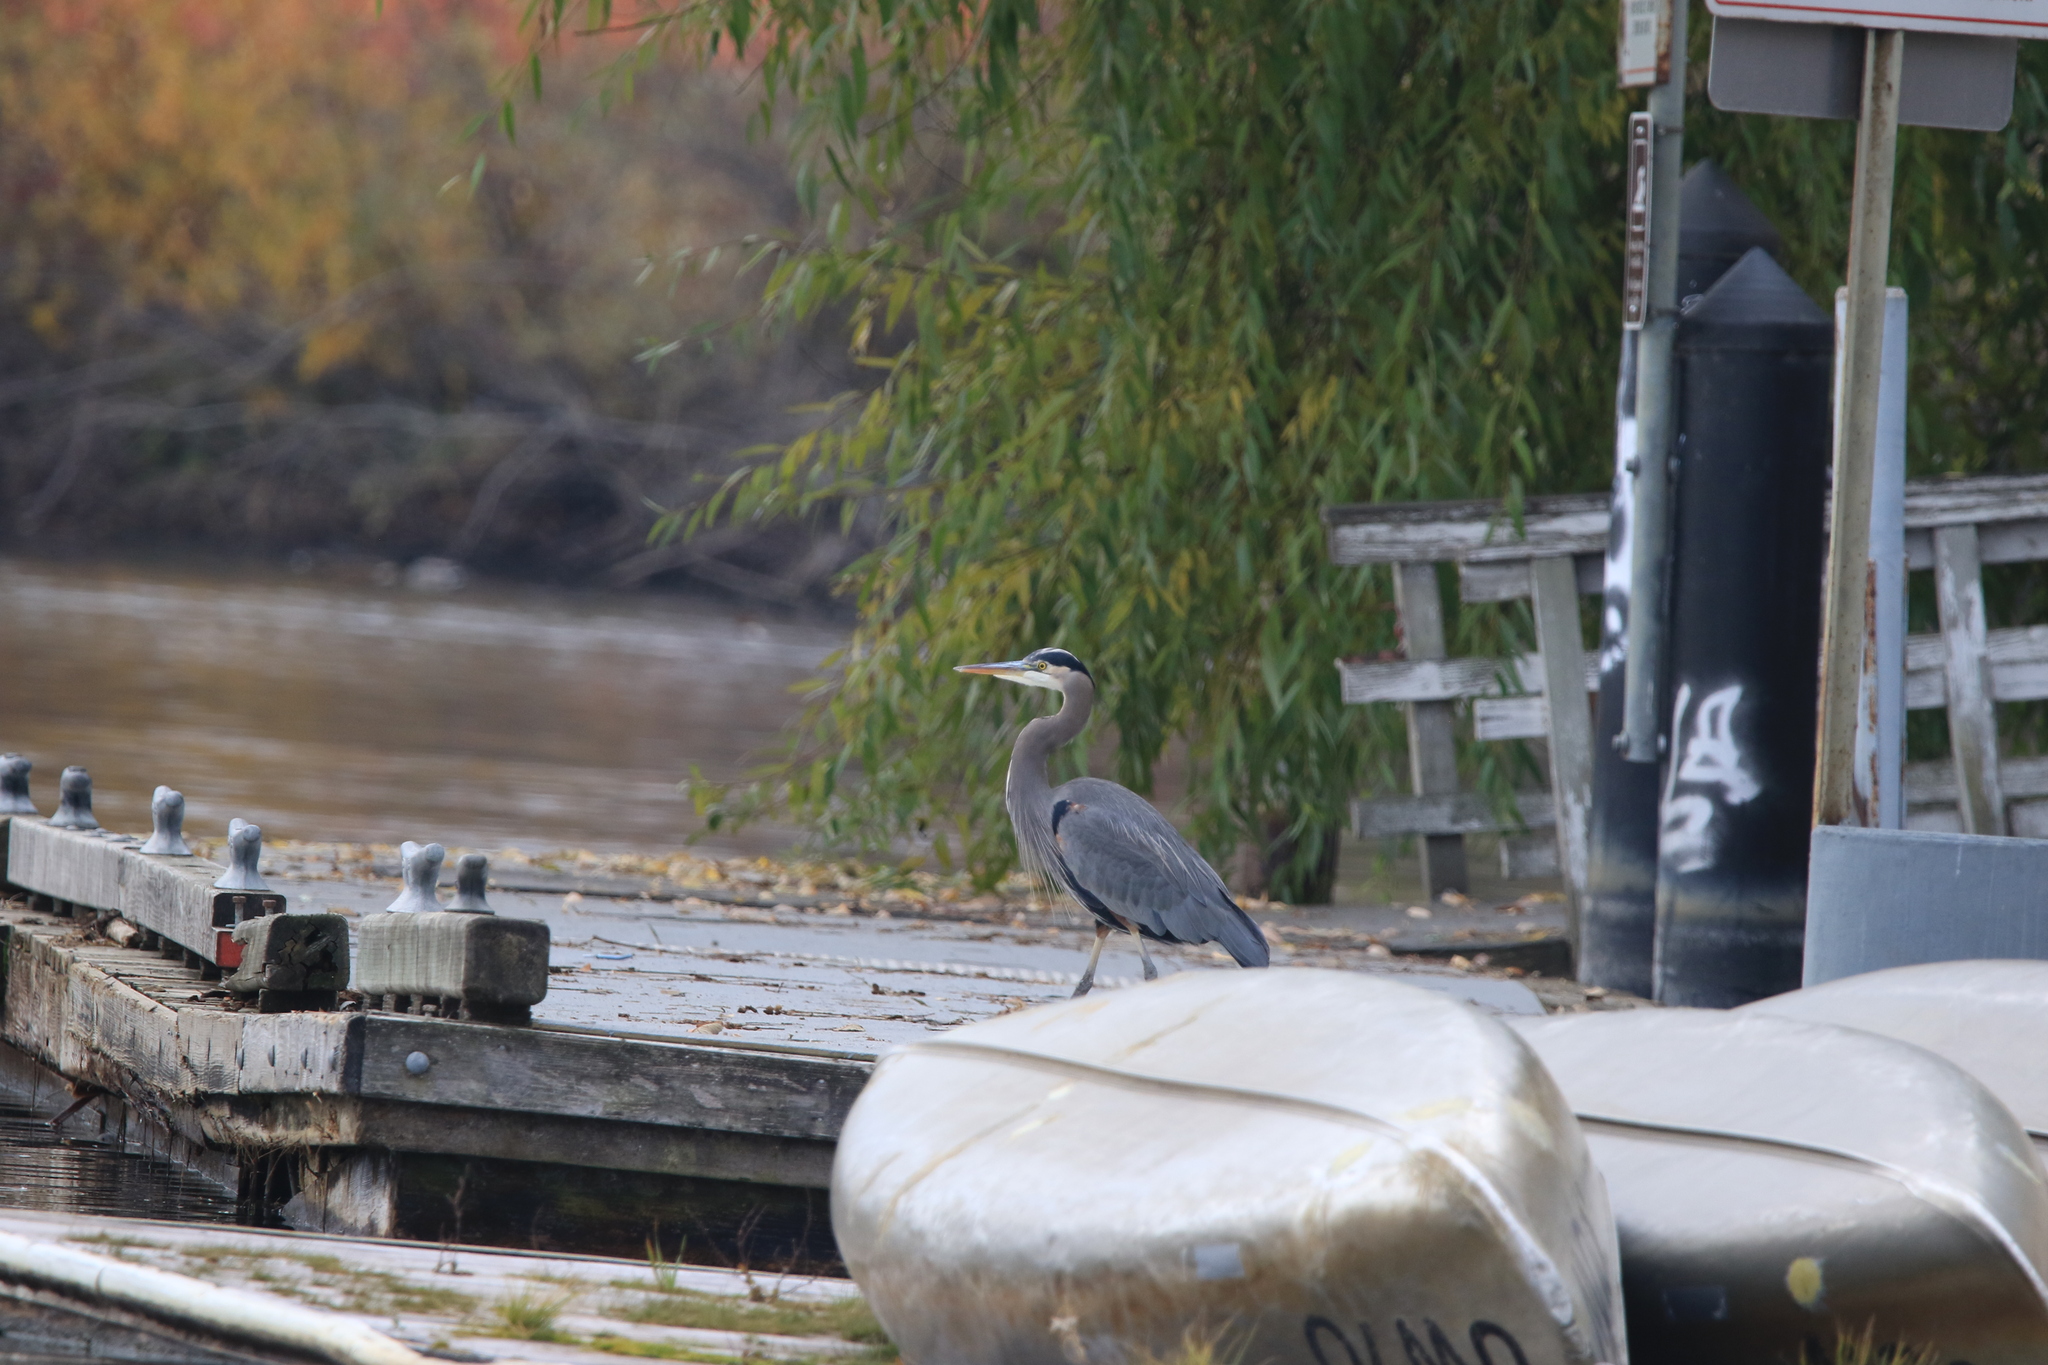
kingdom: Animalia
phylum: Chordata
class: Aves
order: Pelecaniformes
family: Ardeidae
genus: Ardea
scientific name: Ardea herodias
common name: Great blue heron
